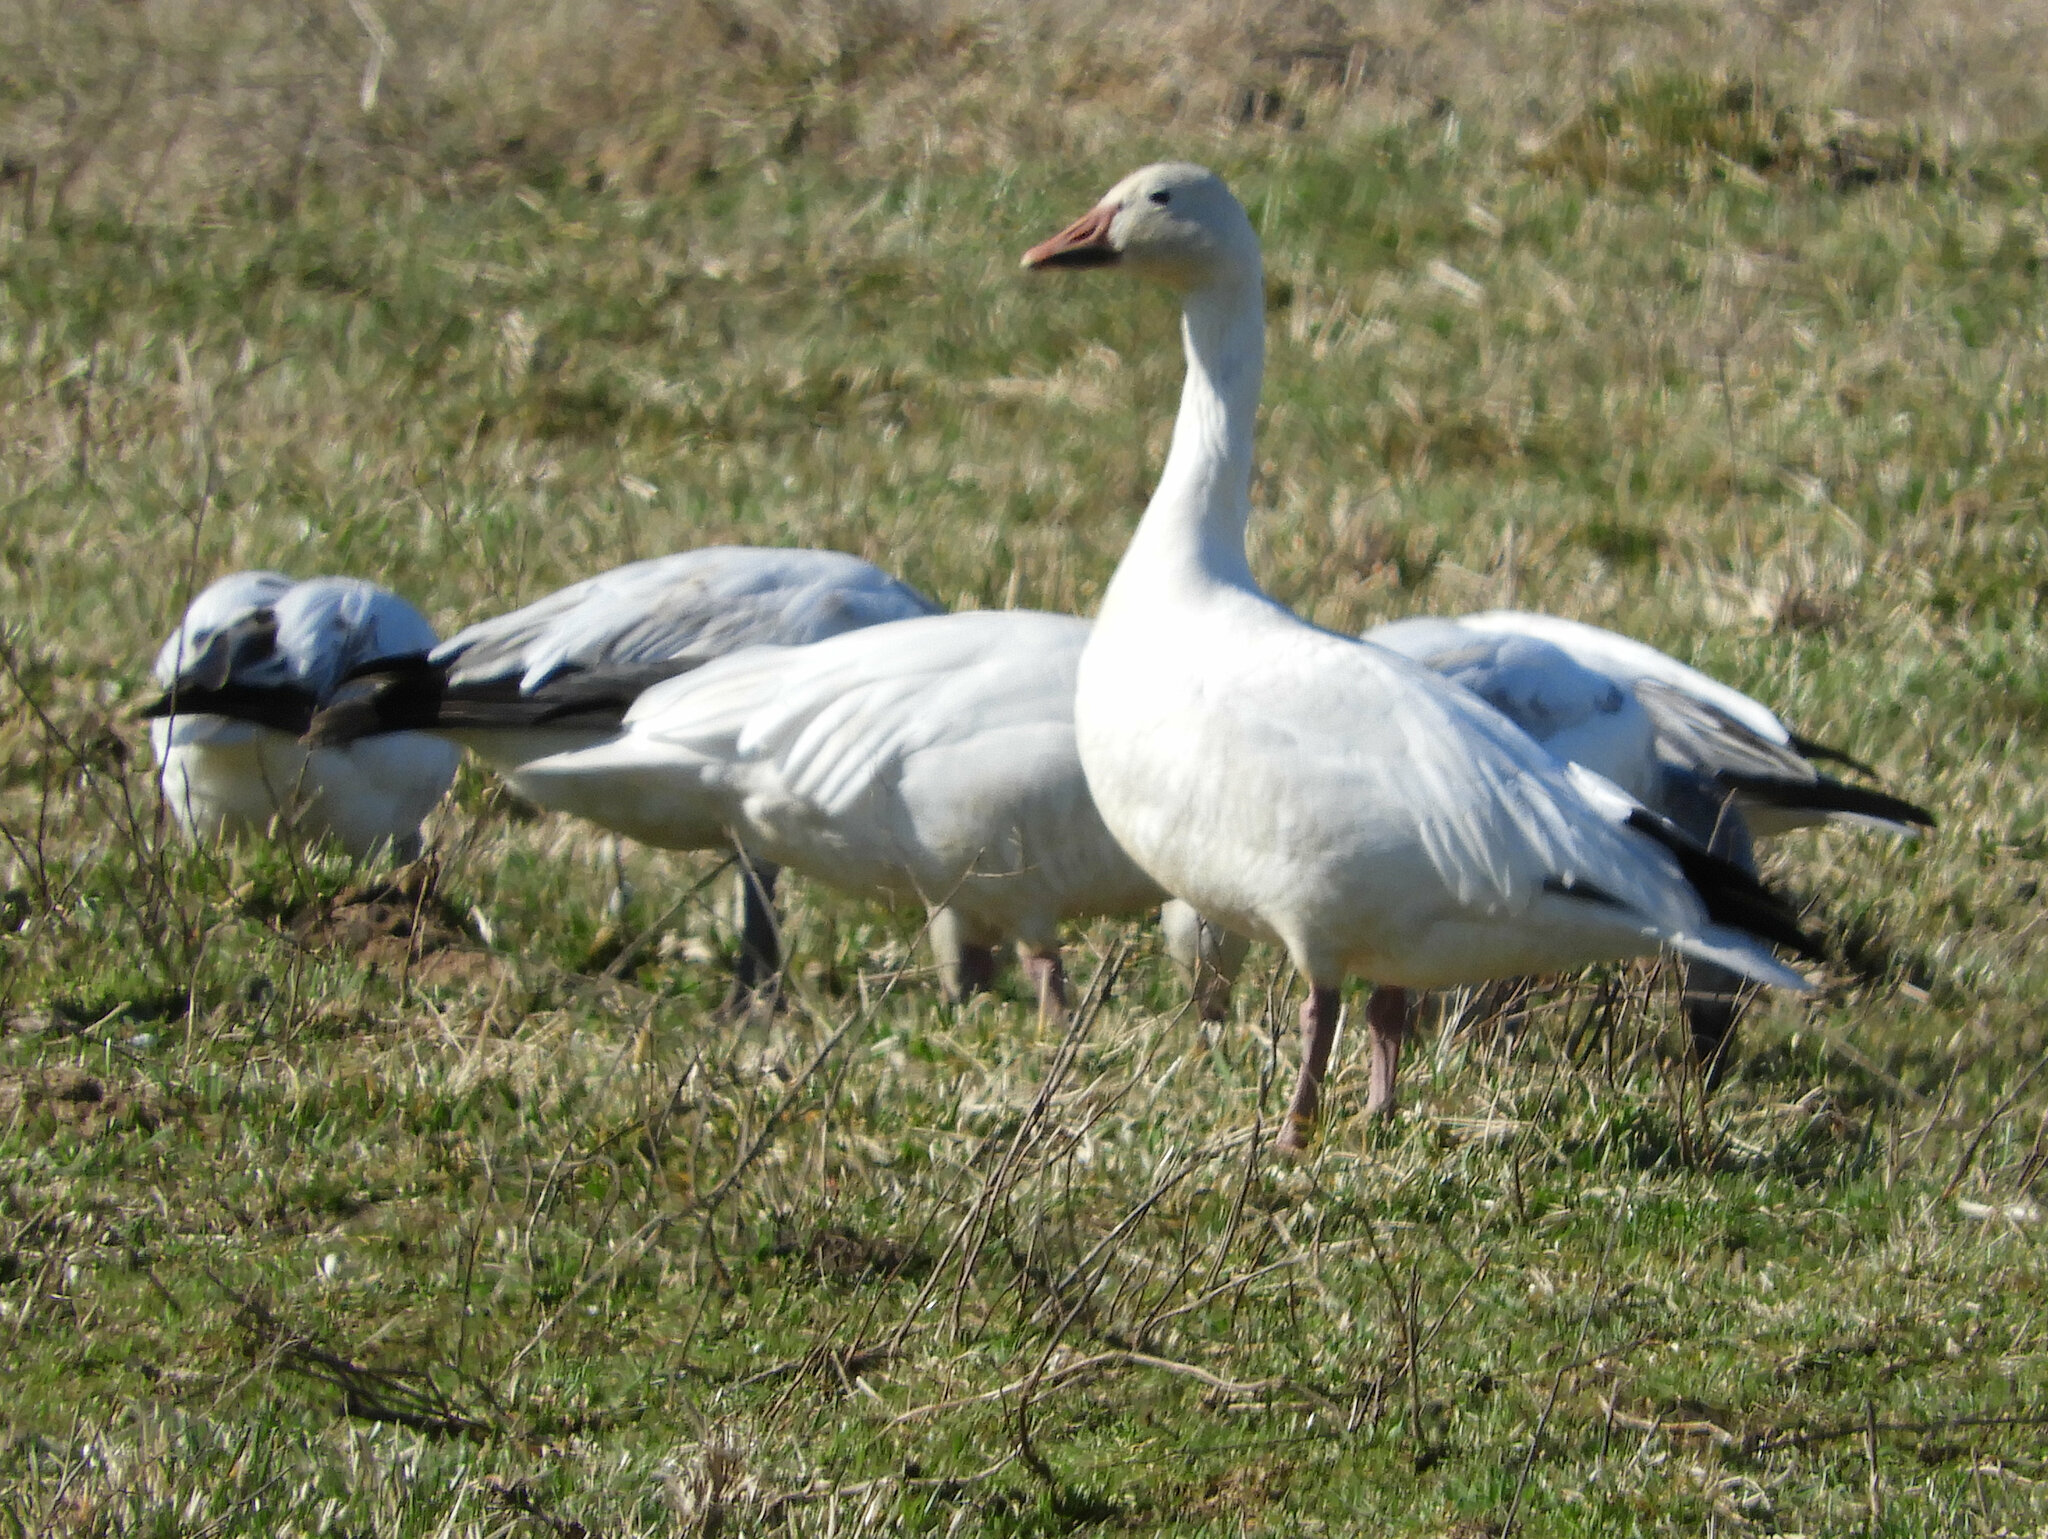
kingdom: Animalia
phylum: Chordata
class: Aves
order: Anseriformes
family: Anatidae
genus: Anser
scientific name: Anser caerulescens
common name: Snow goose
